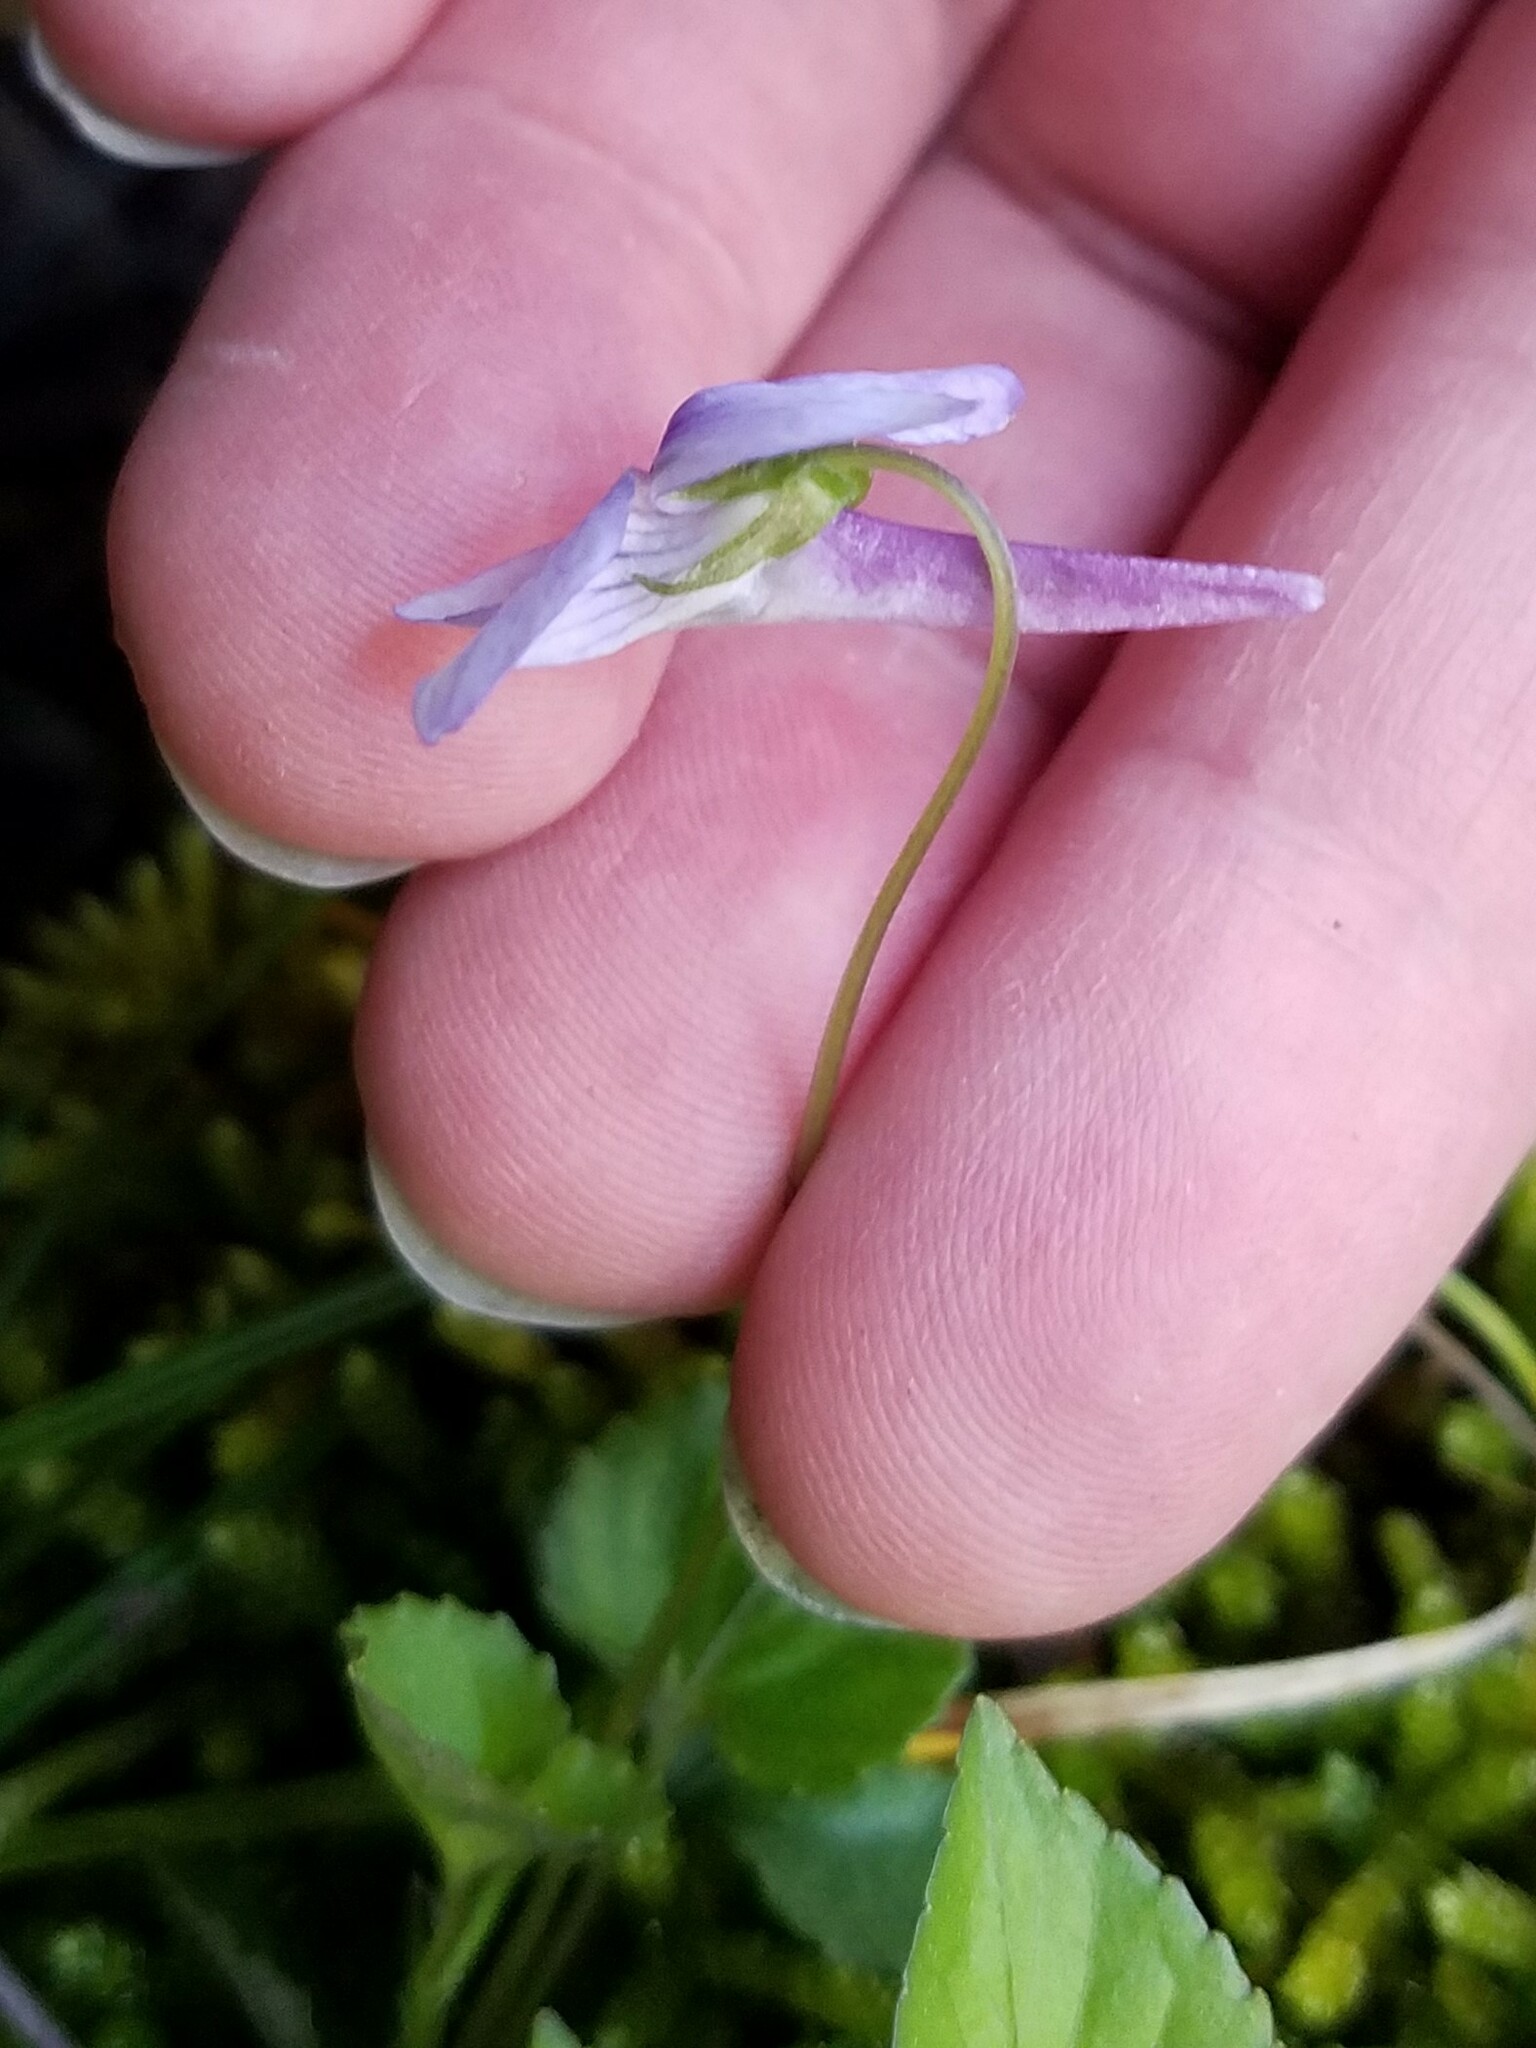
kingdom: Plantae
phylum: Tracheophyta
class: Magnoliopsida
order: Malpighiales
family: Violaceae
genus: Viola
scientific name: Viola rostrata
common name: Long-spur violet
